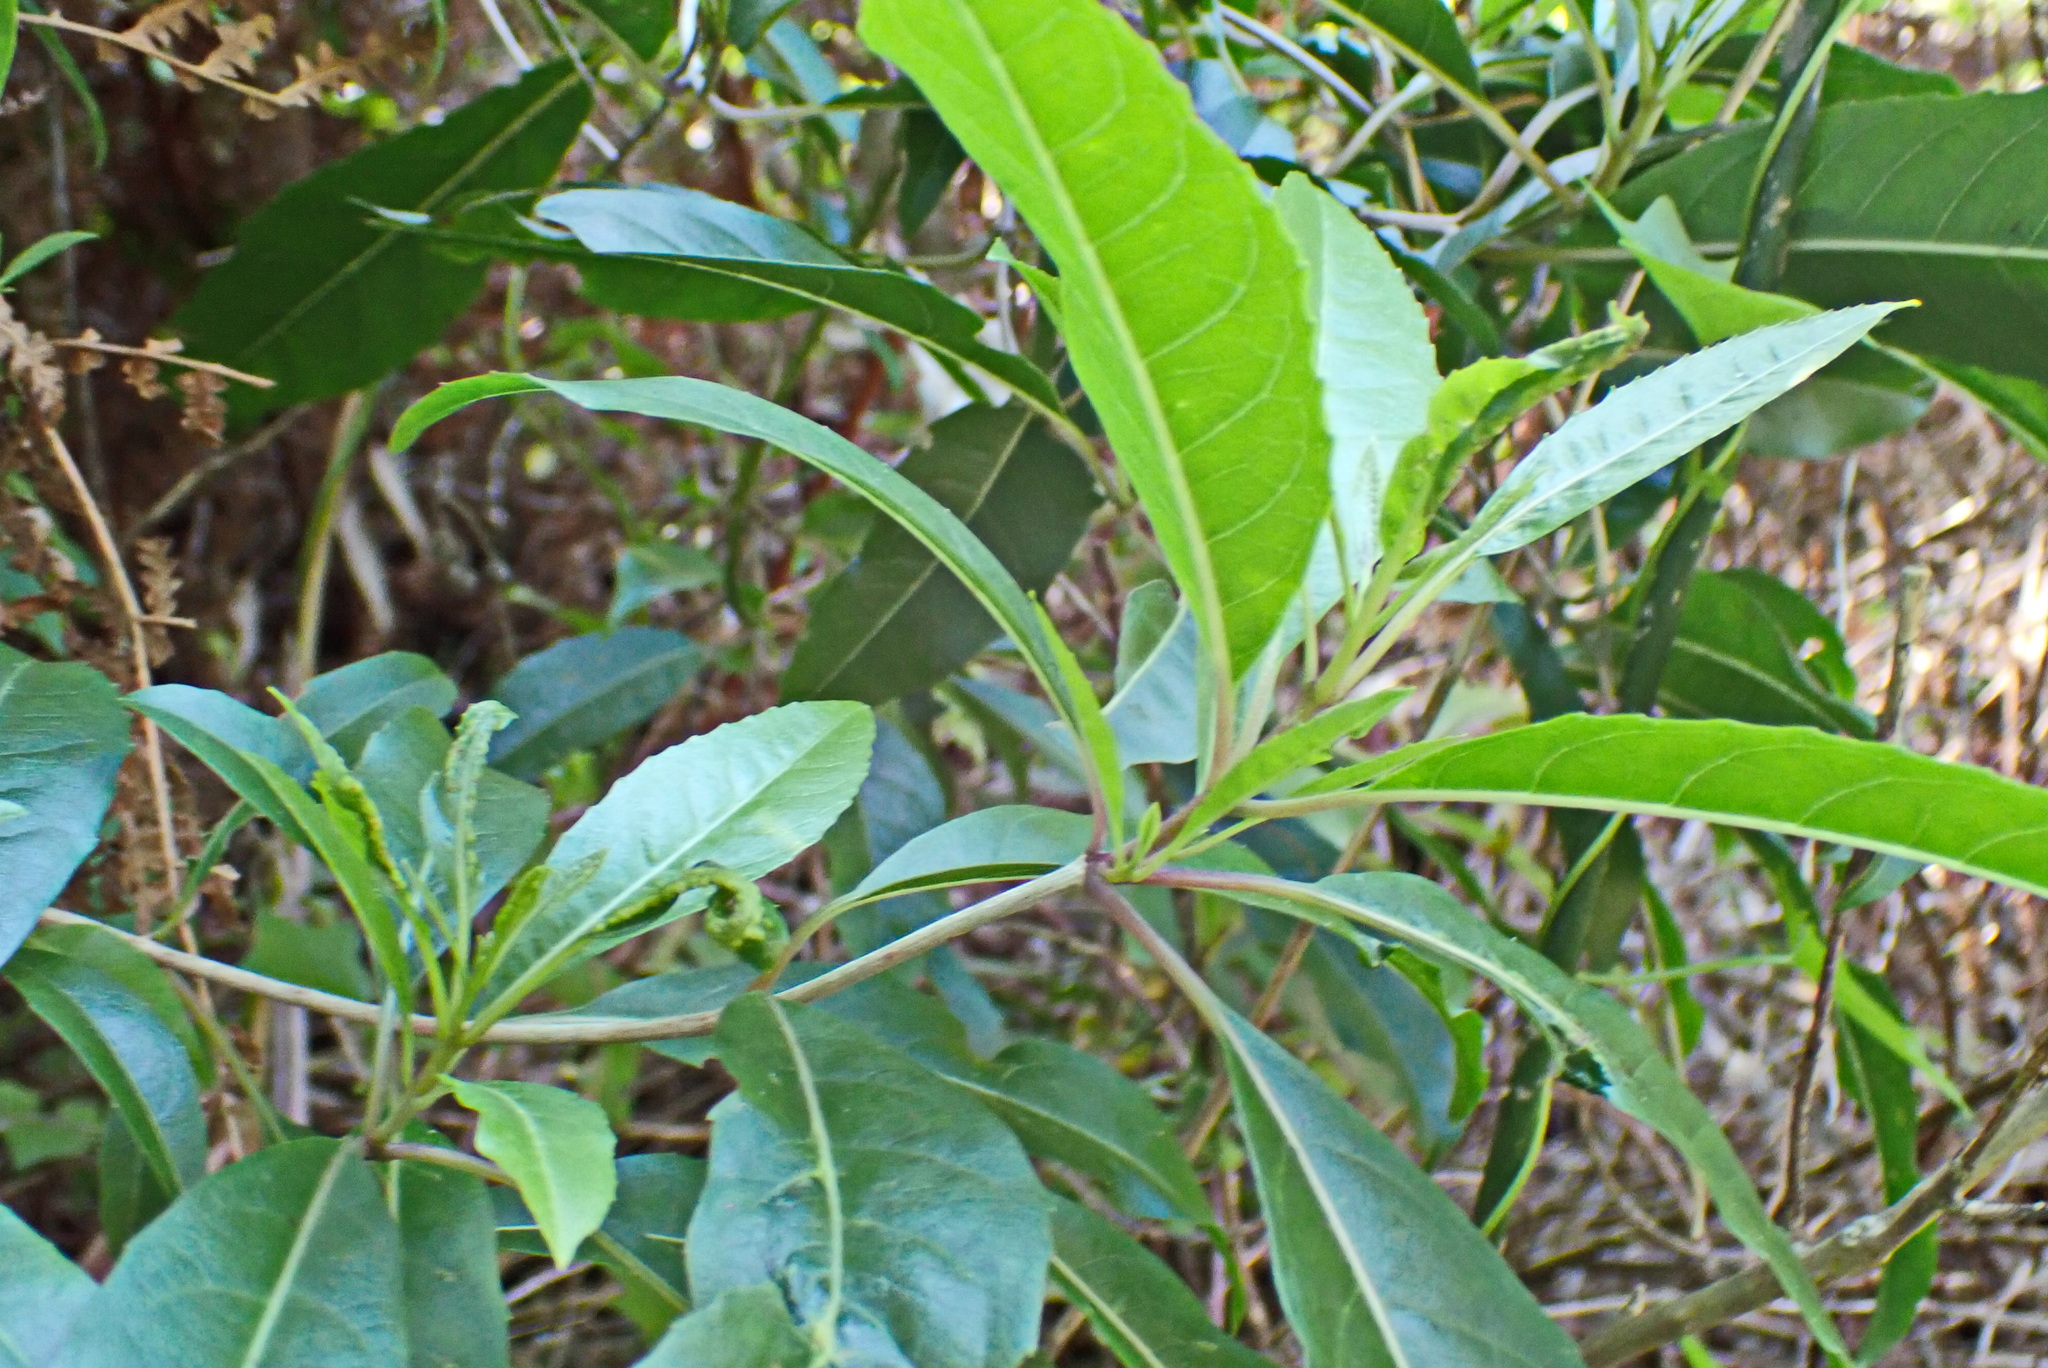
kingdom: Plantae
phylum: Tracheophyta
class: Magnoliopsida
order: Lamiales
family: Stilbaceae
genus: Nuxia
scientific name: Nuxia floribunda
